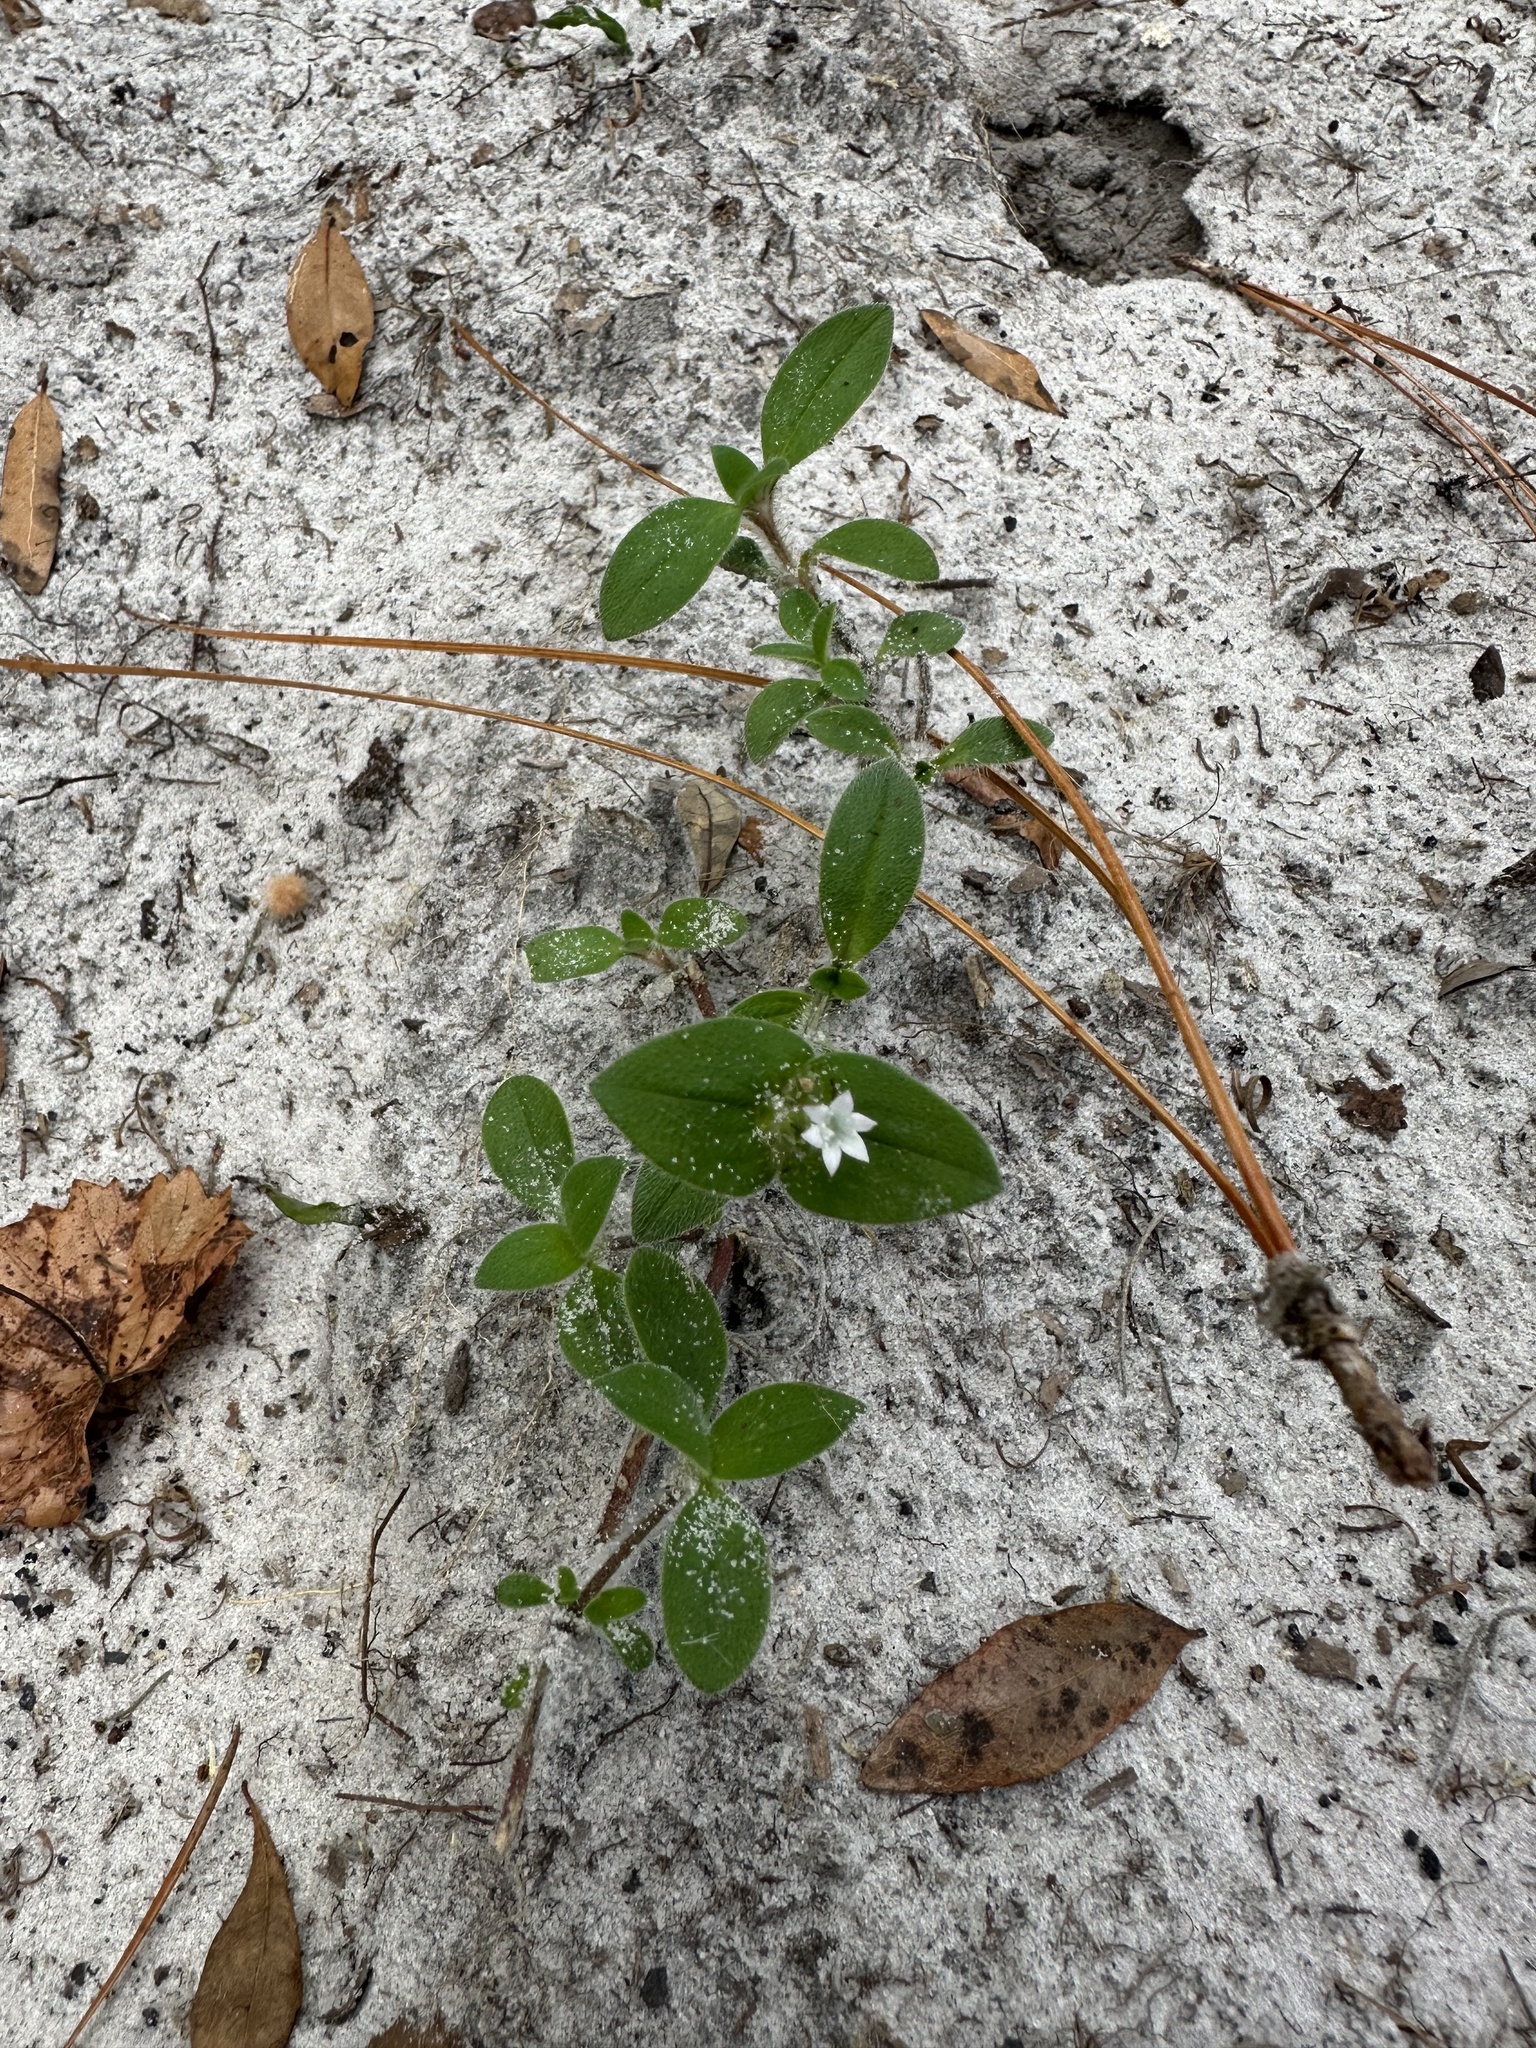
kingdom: Plantae
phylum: Tracheophyta
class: Magnoliopsida
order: Gentianales
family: Rubiaceae
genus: Richardia
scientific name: Richardia brasiliensis
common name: Tropical mexican clover
